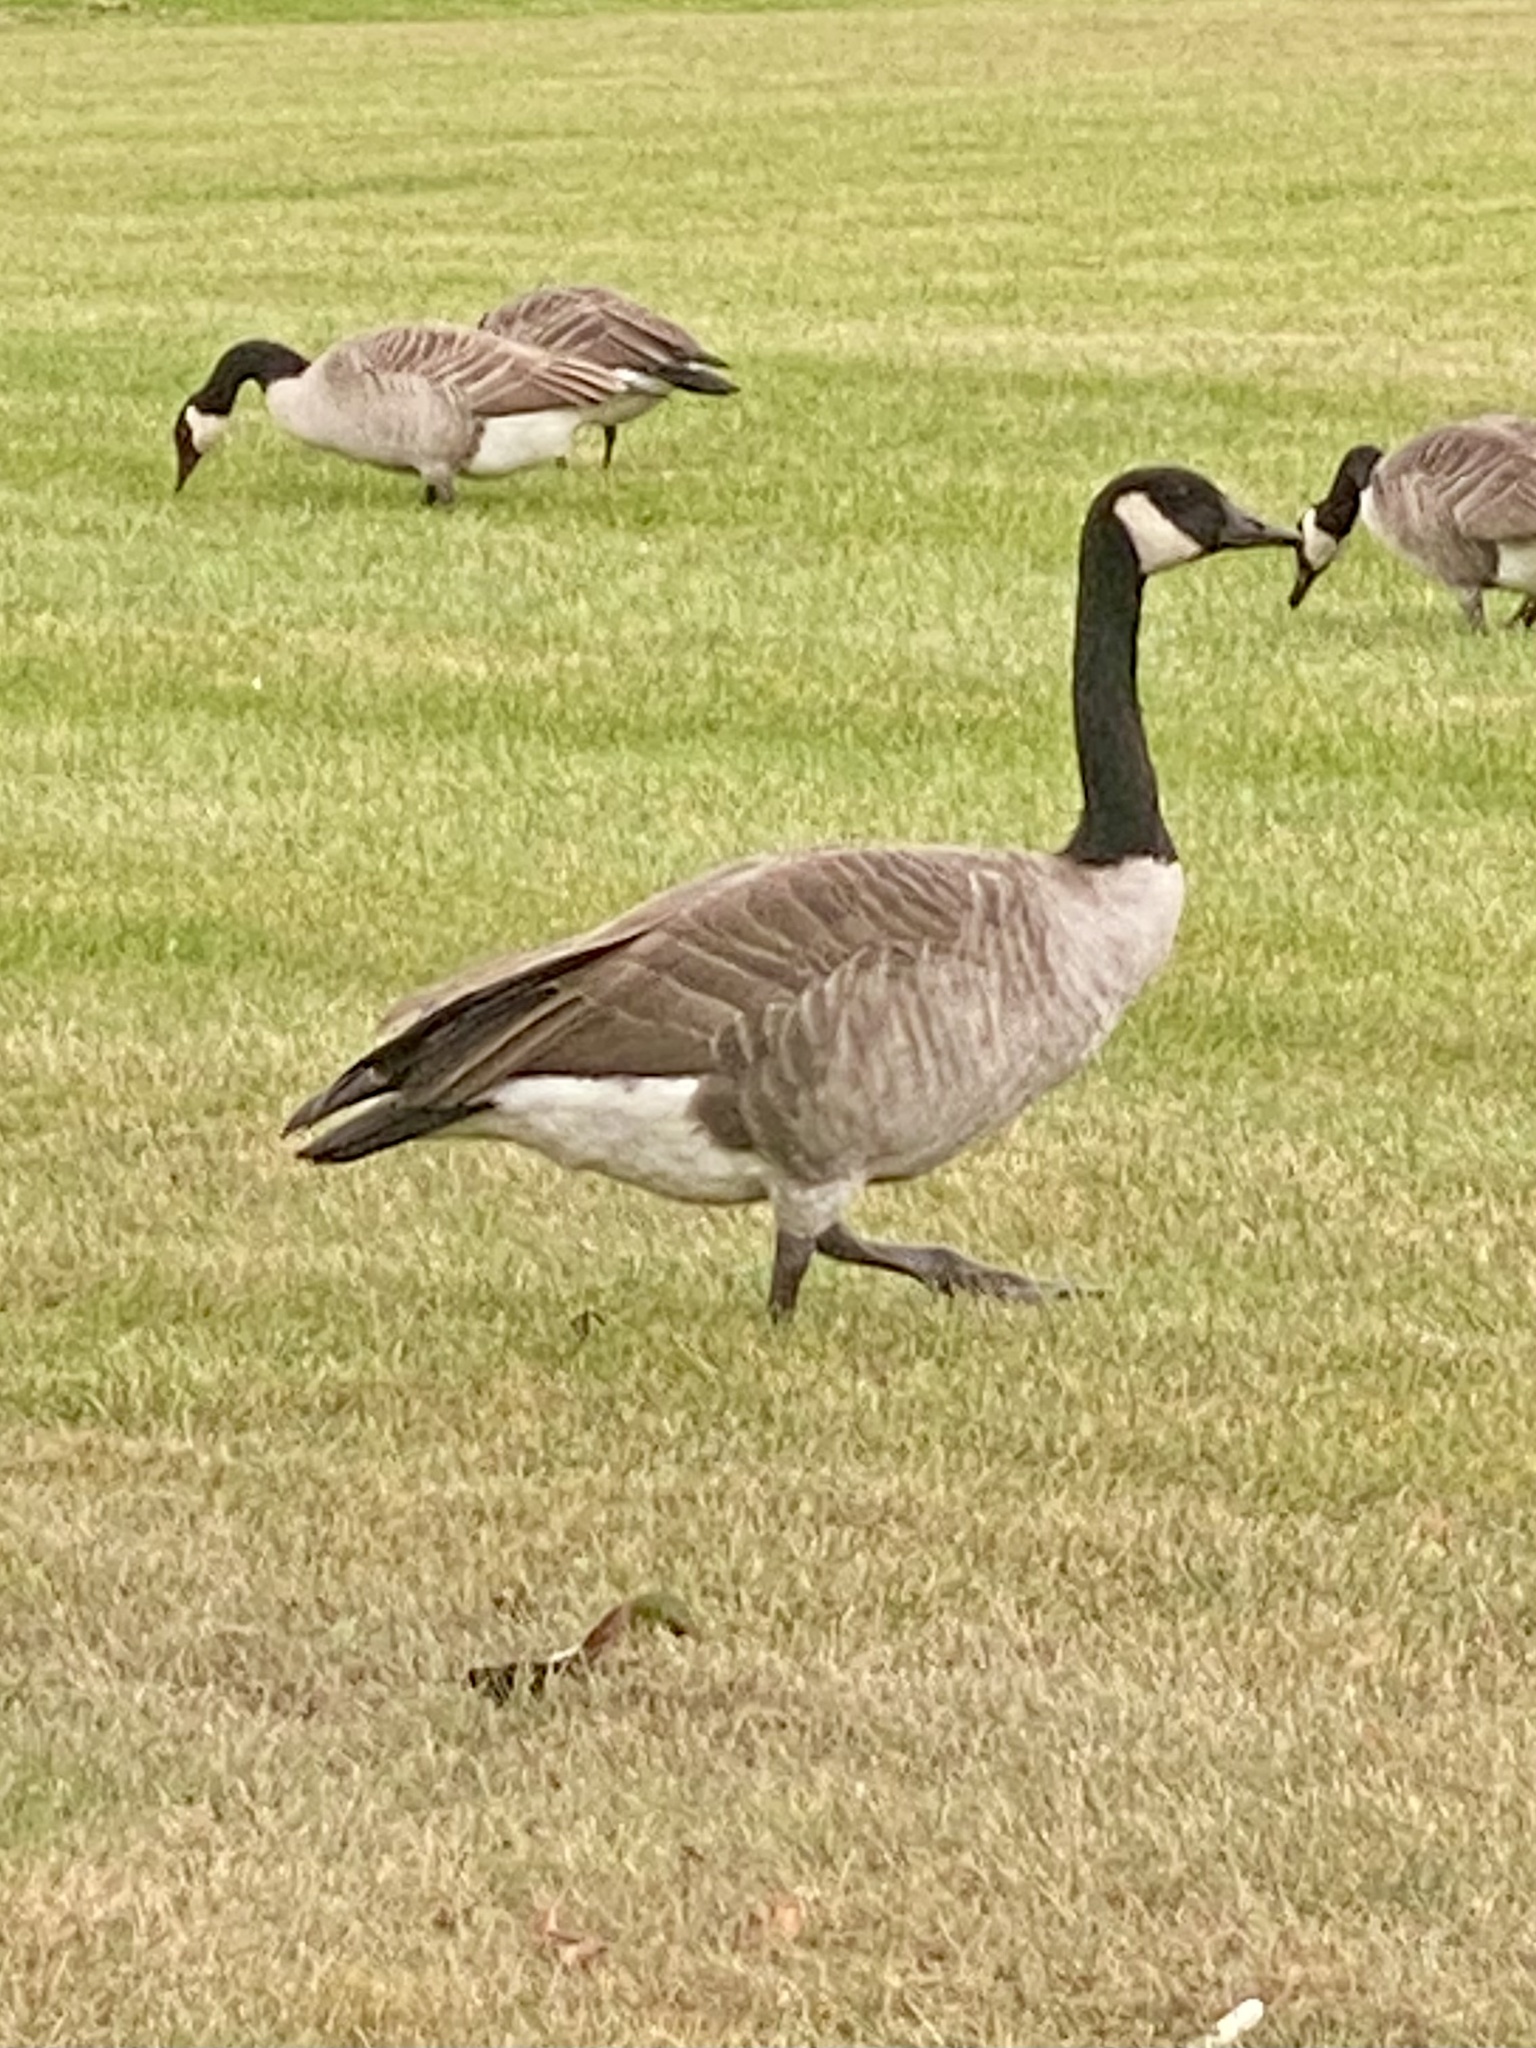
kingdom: Animalia
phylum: Chordata
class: Aves
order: Anseriformes
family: Anatidae
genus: Branta
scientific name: Branta canadensis
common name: Canada goose
